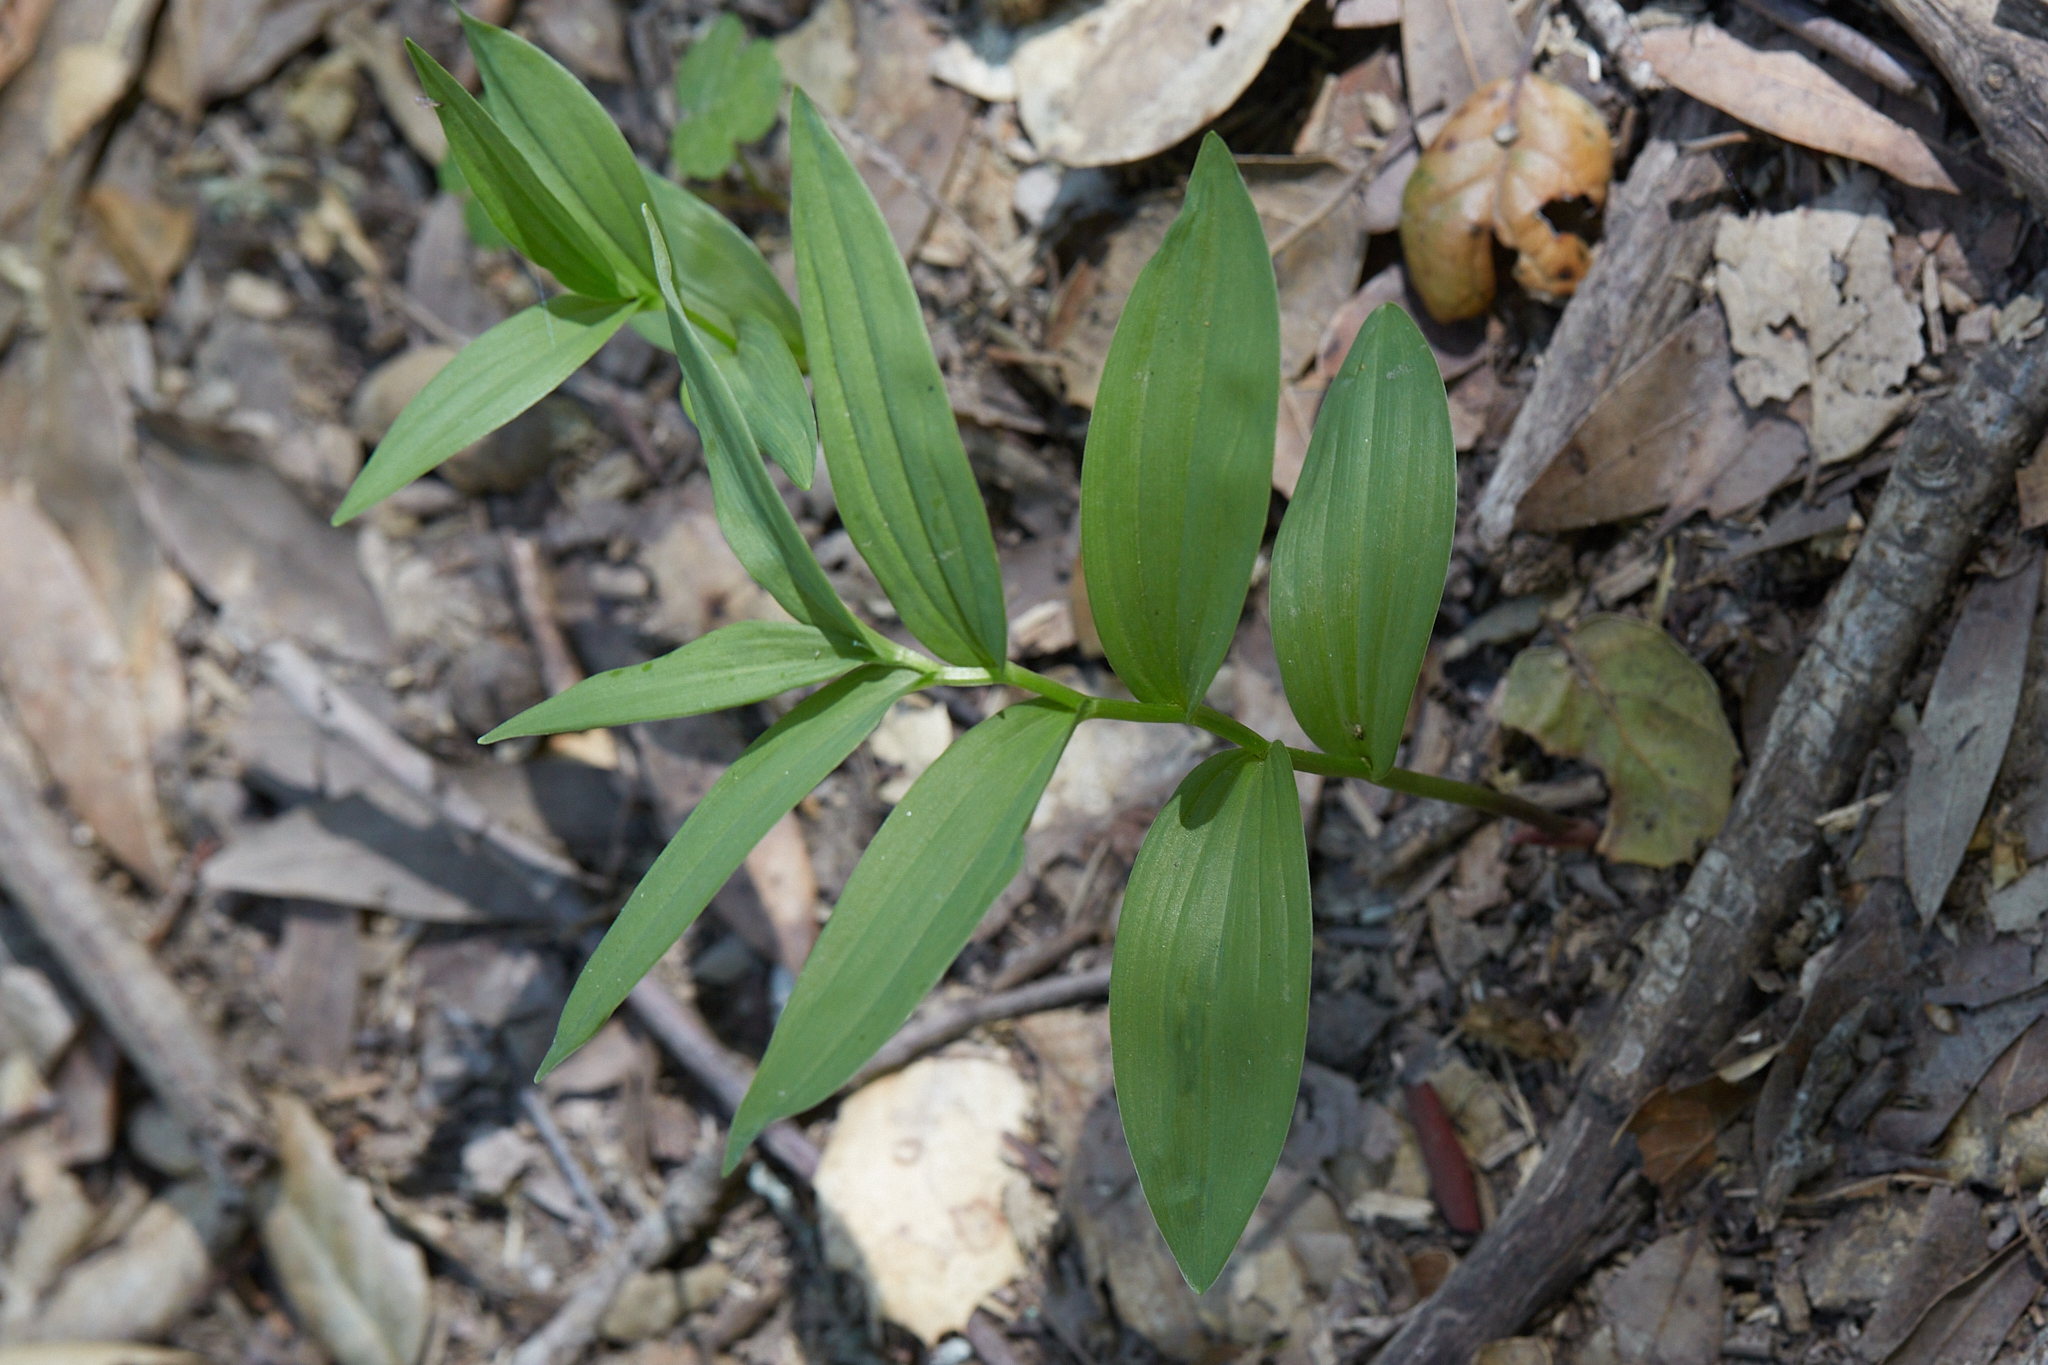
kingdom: Plantae
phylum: Tracheophyta
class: Liliopsida
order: Asparagales
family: Asparagaceae
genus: Maianthemum
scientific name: Maianthemum stellatum
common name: Little false solomon's seal
